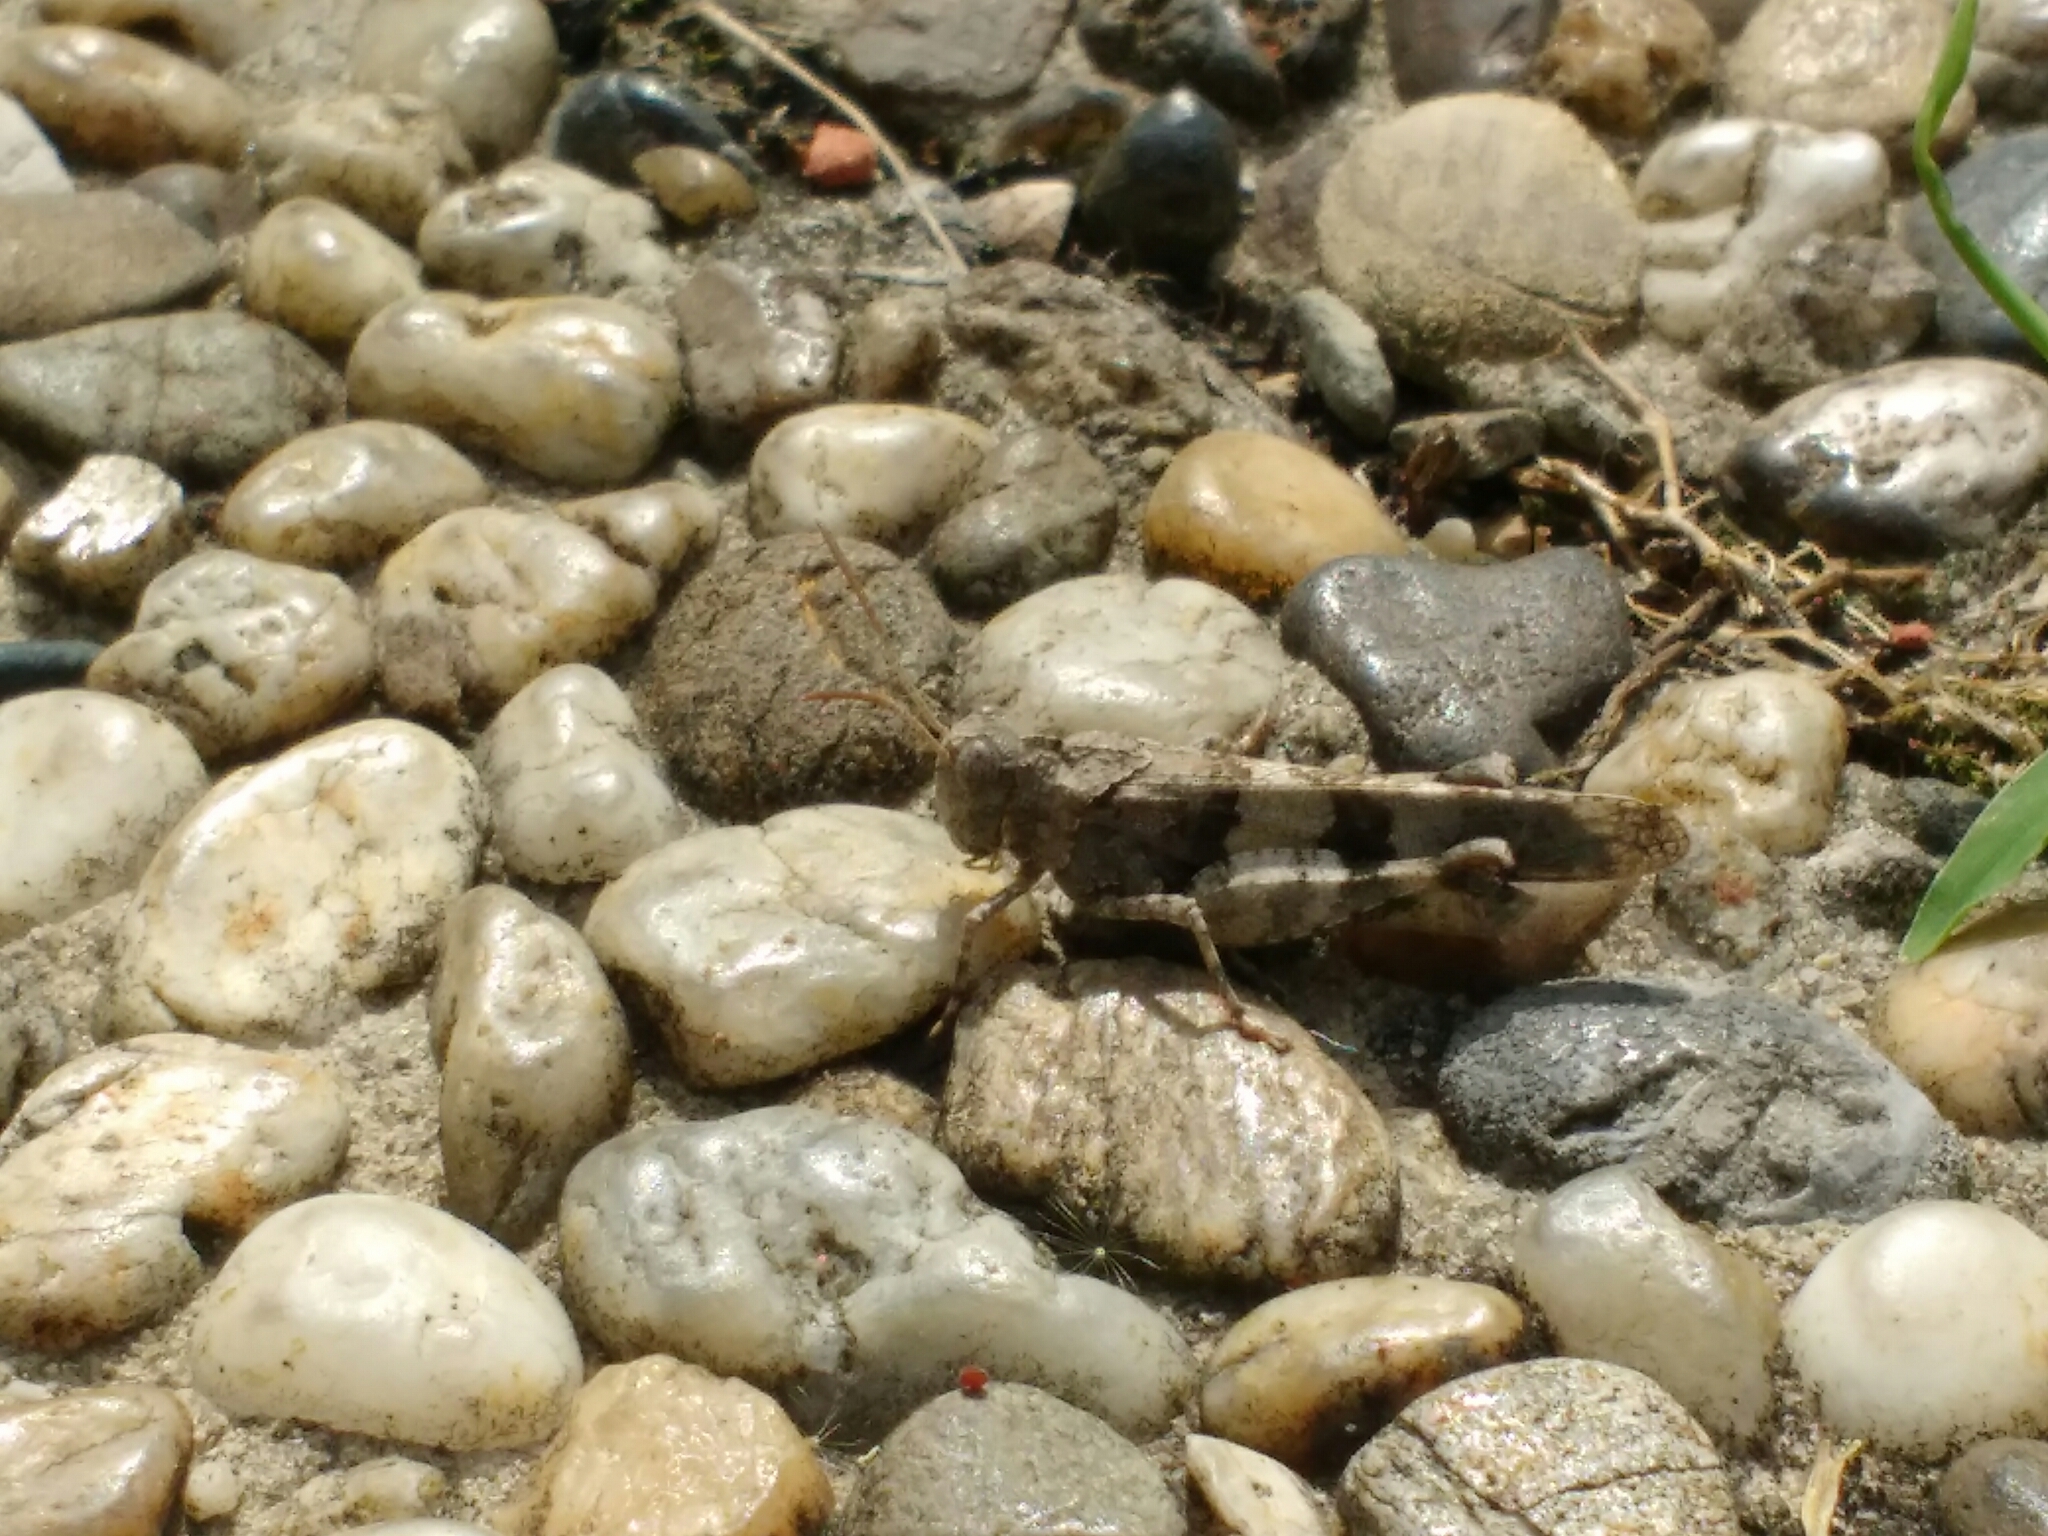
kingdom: Animalia
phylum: Arthropoda
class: Insecta
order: Orthoptera
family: Acrididae
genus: Oedipoda
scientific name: Oedipoda caerulescens
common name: Blue-winged grasshopper
